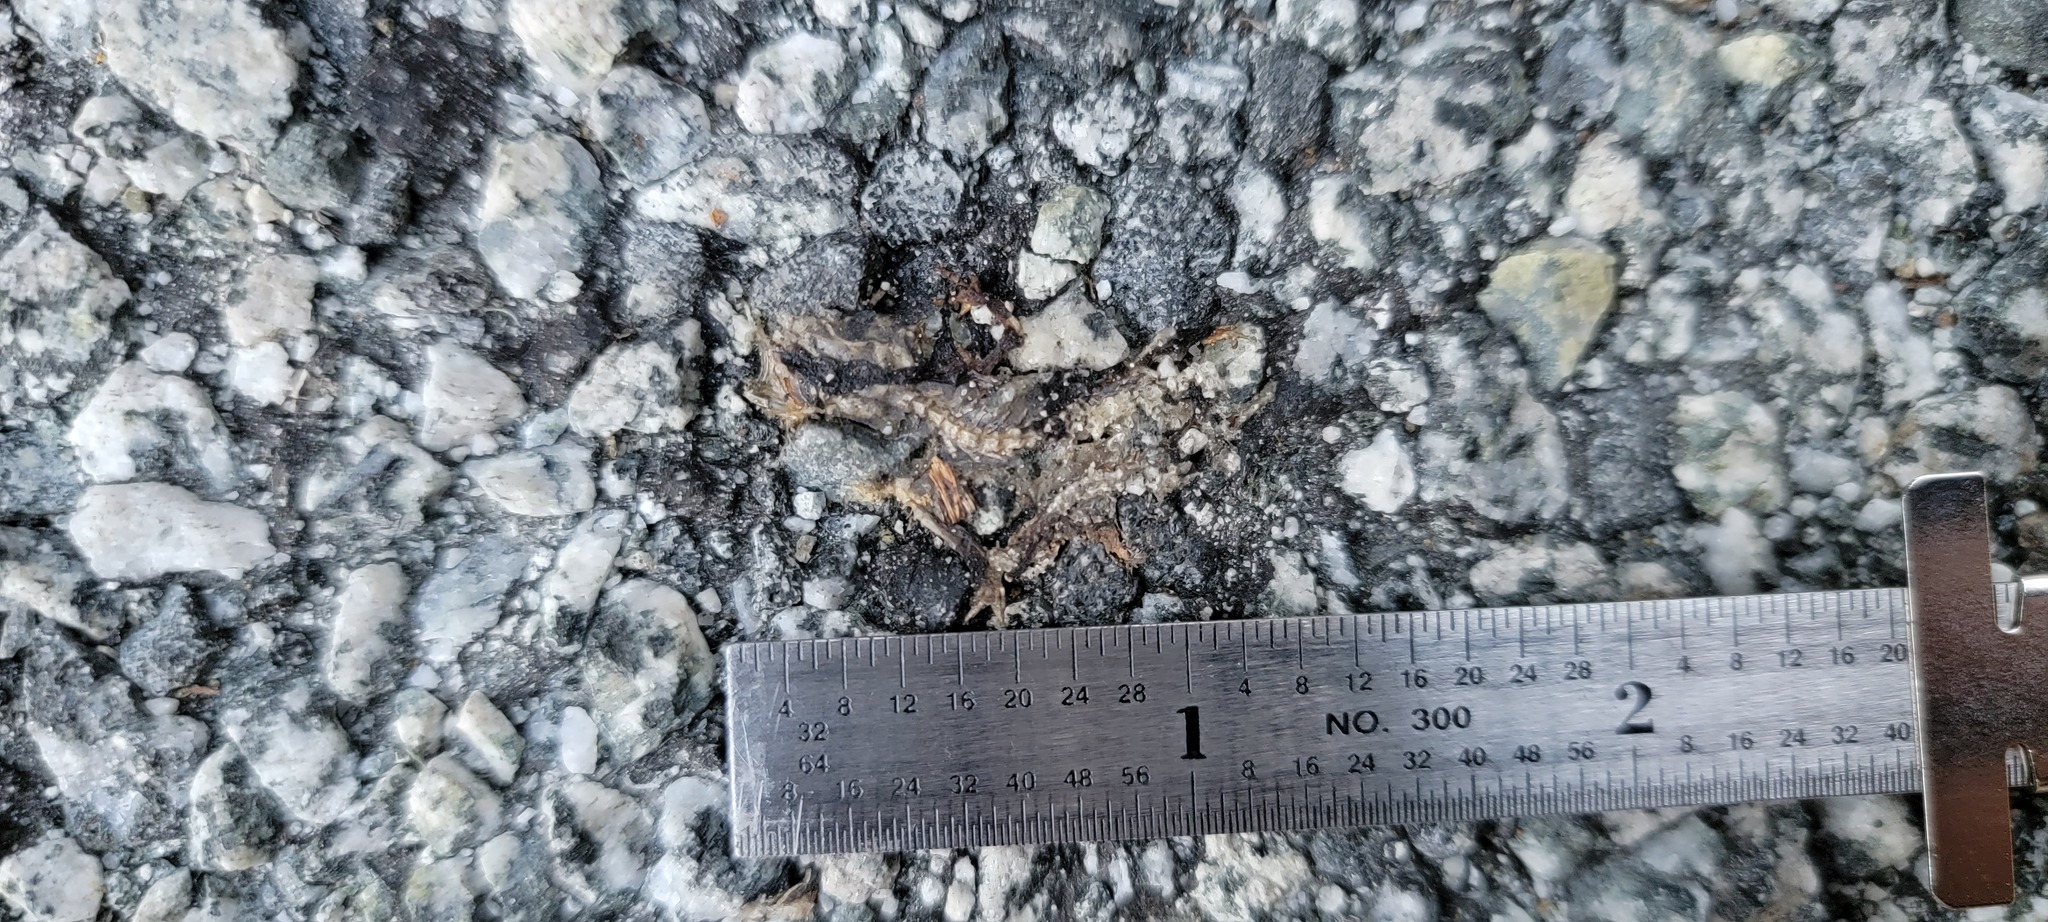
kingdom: Animalia
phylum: Chordata
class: Amphibia
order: Caudata
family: Salamandridae
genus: Taricha
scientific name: Taricha
